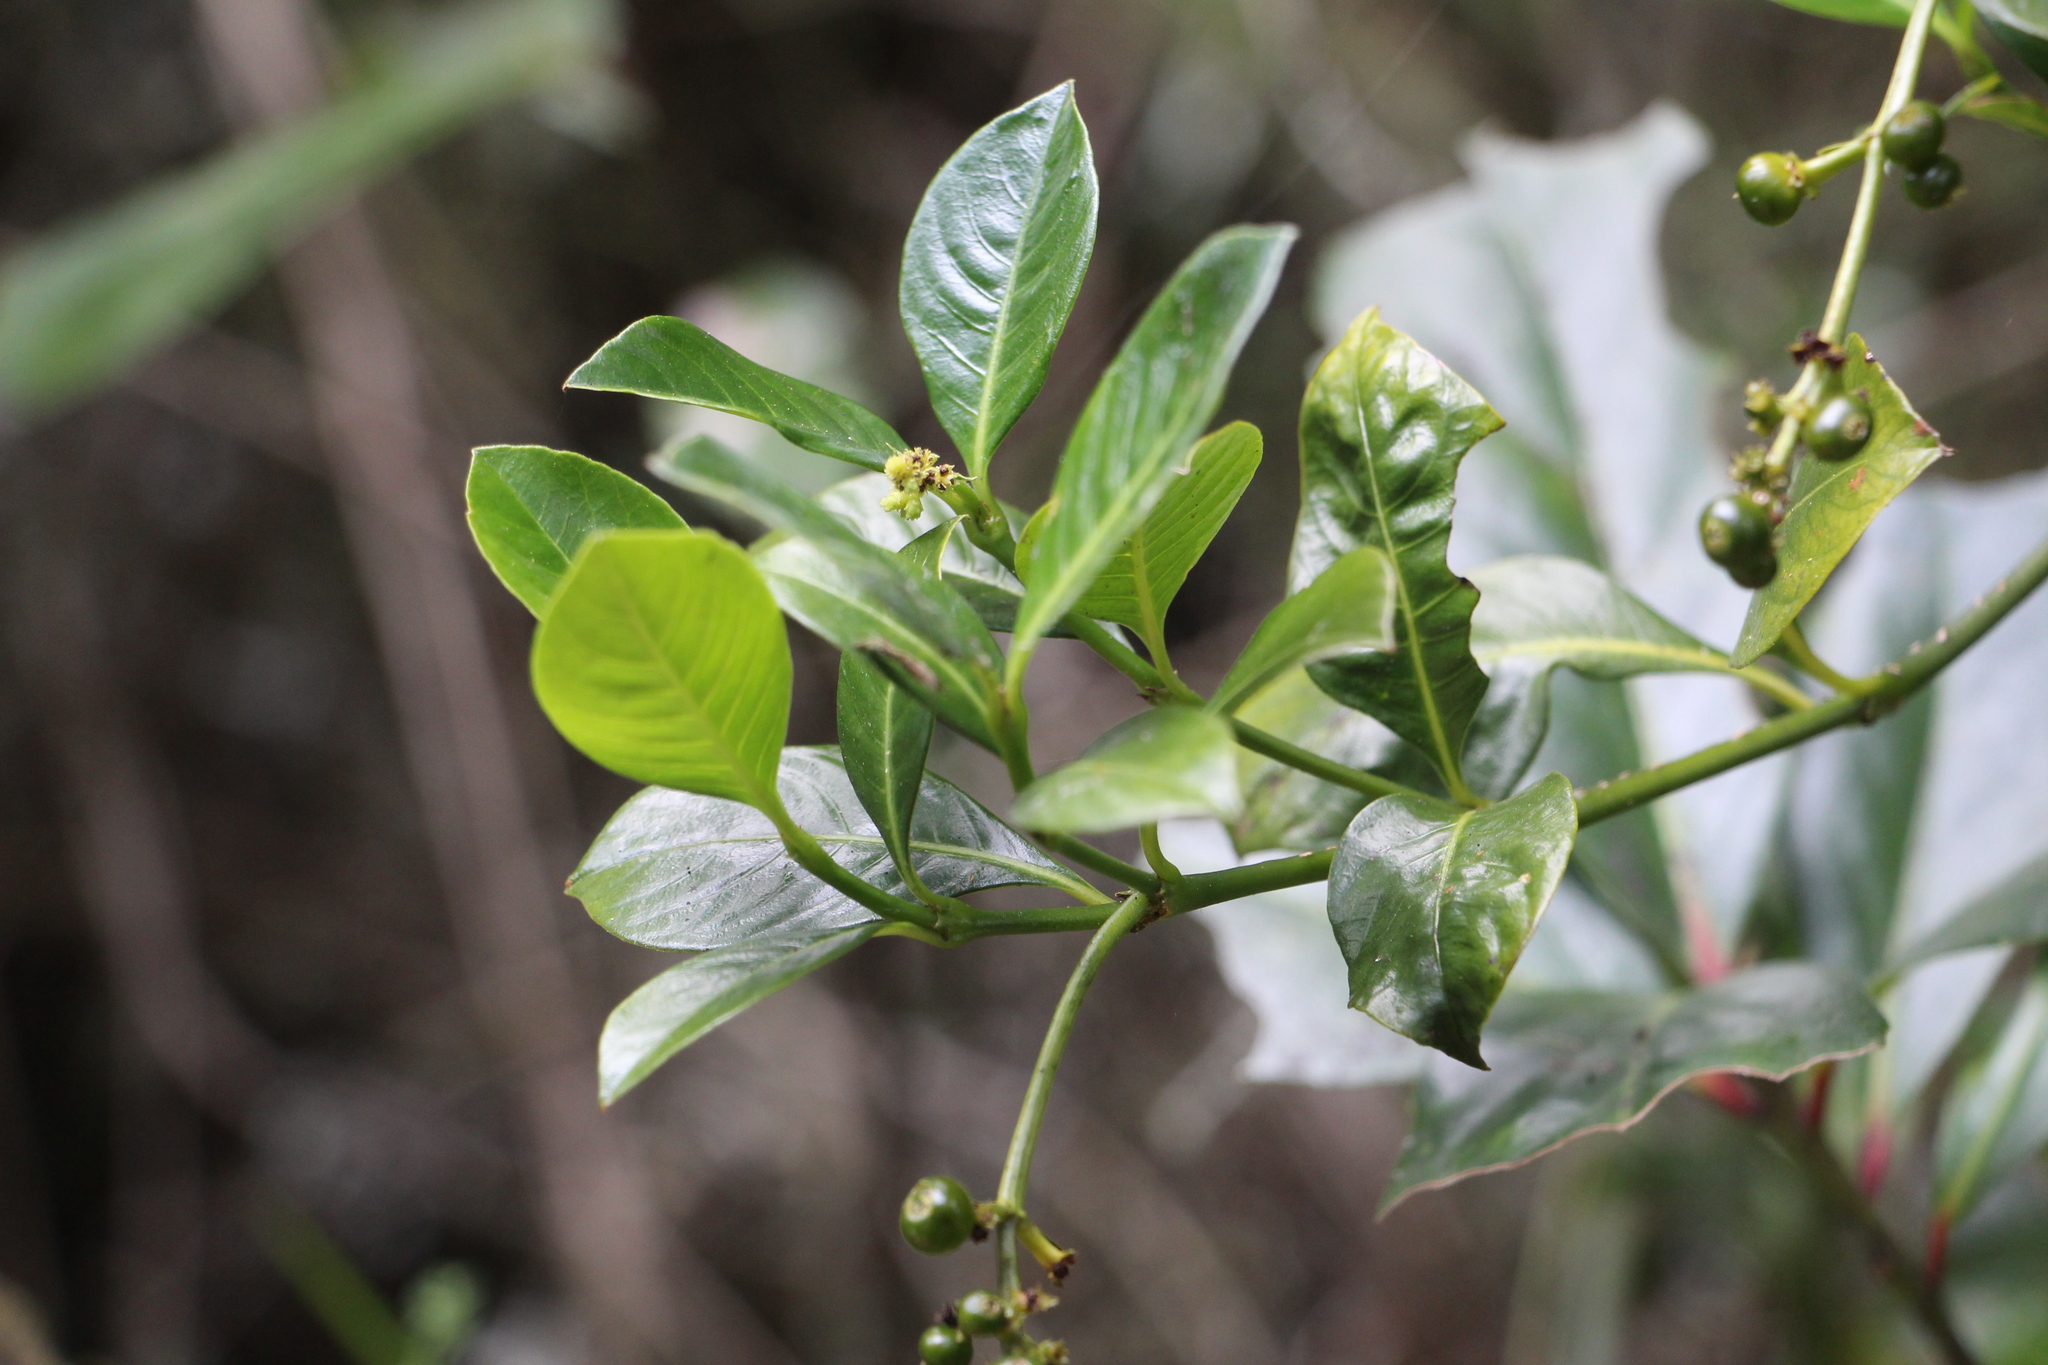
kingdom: Plantae
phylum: Tracheophyta
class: Magnoliopsida
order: Gentianales
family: Rubiaceae
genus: Palicourea
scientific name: Palicourea boqueronensis
